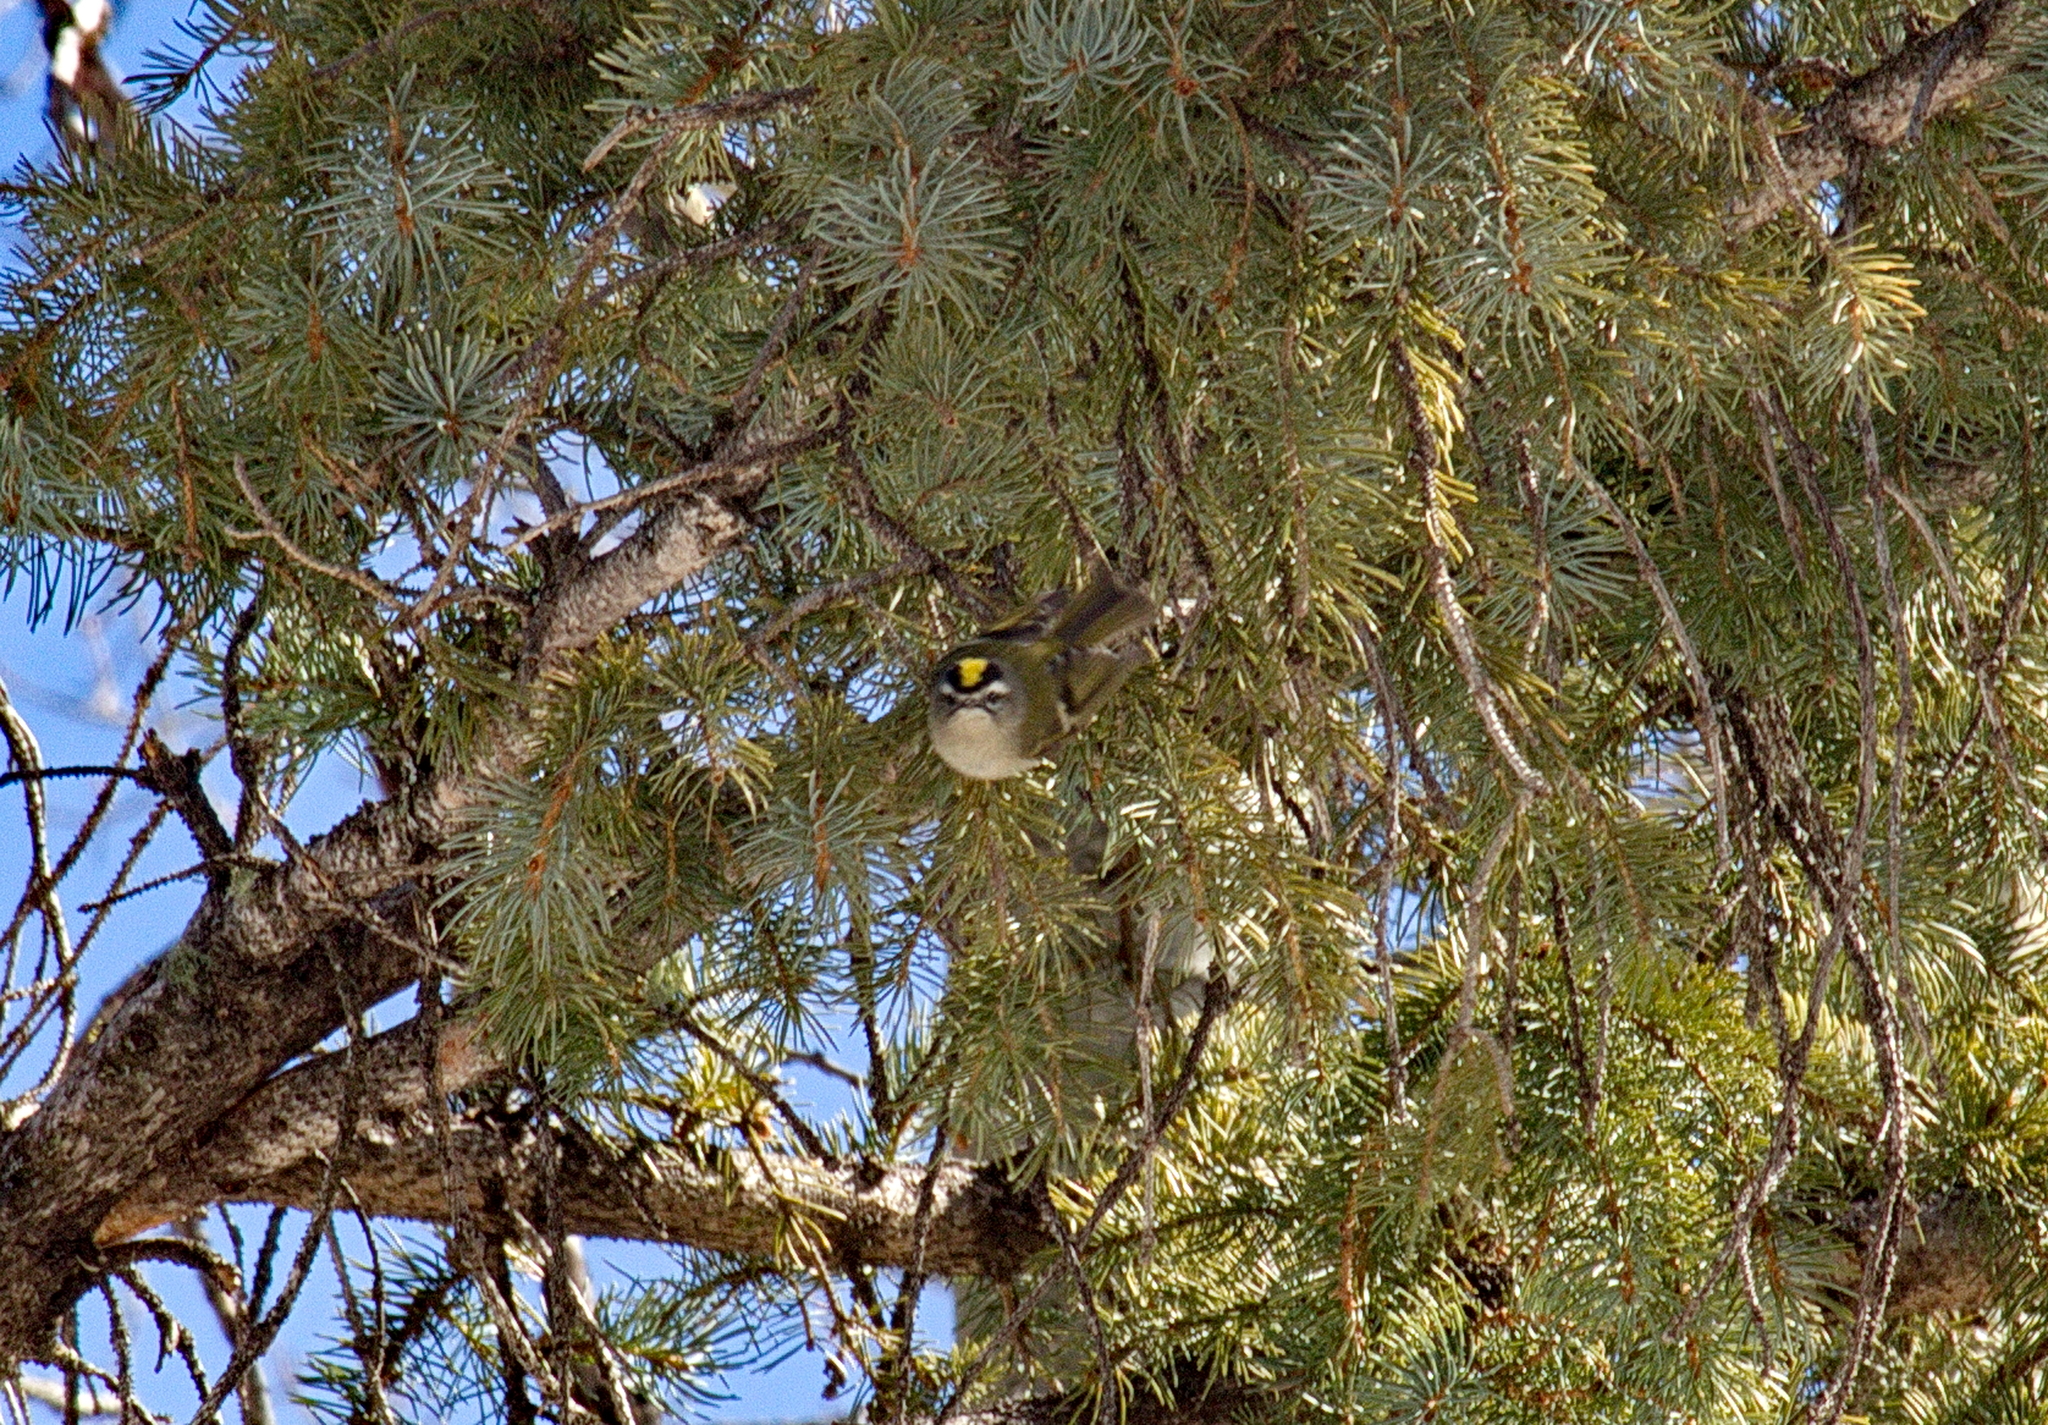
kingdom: Animalia
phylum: Chordata
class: Aves
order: Passeriformes
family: Regulidae
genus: Regulus
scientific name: Regulus satrapa
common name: Golden-crowned kinglet
